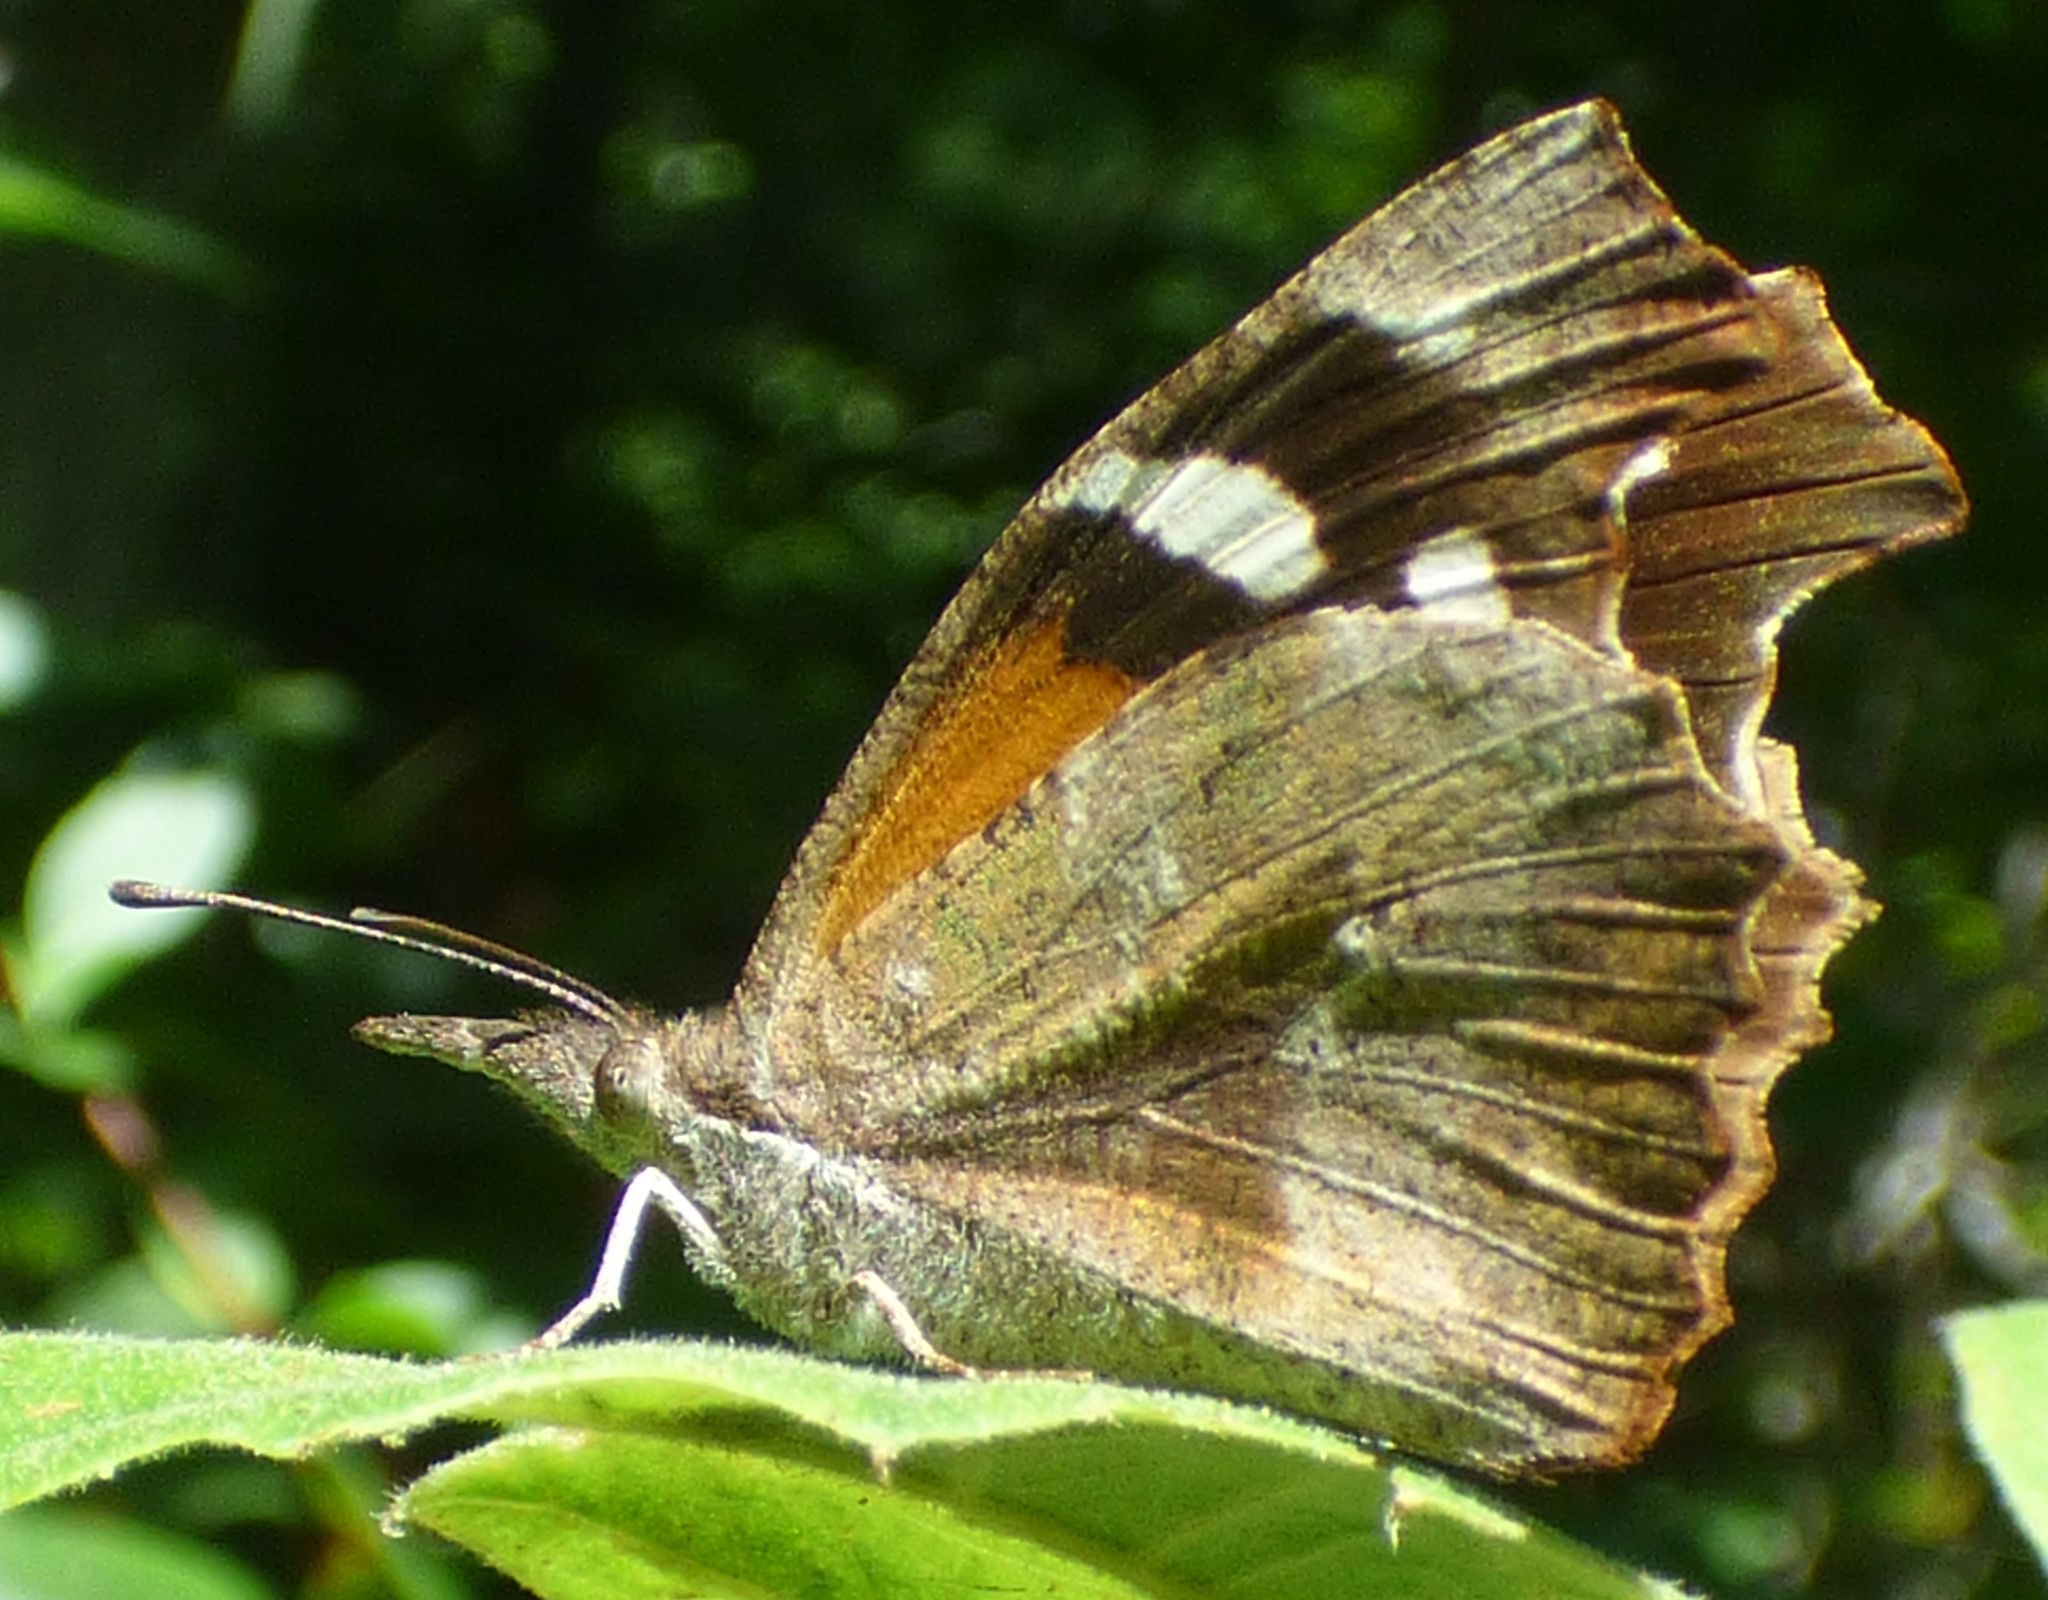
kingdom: Animalia
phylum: Arthropoda
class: Insecta
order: Lepidoptera
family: Nymphalidae
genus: Libytheana
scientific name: Libytheana carinenta
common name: American snout
